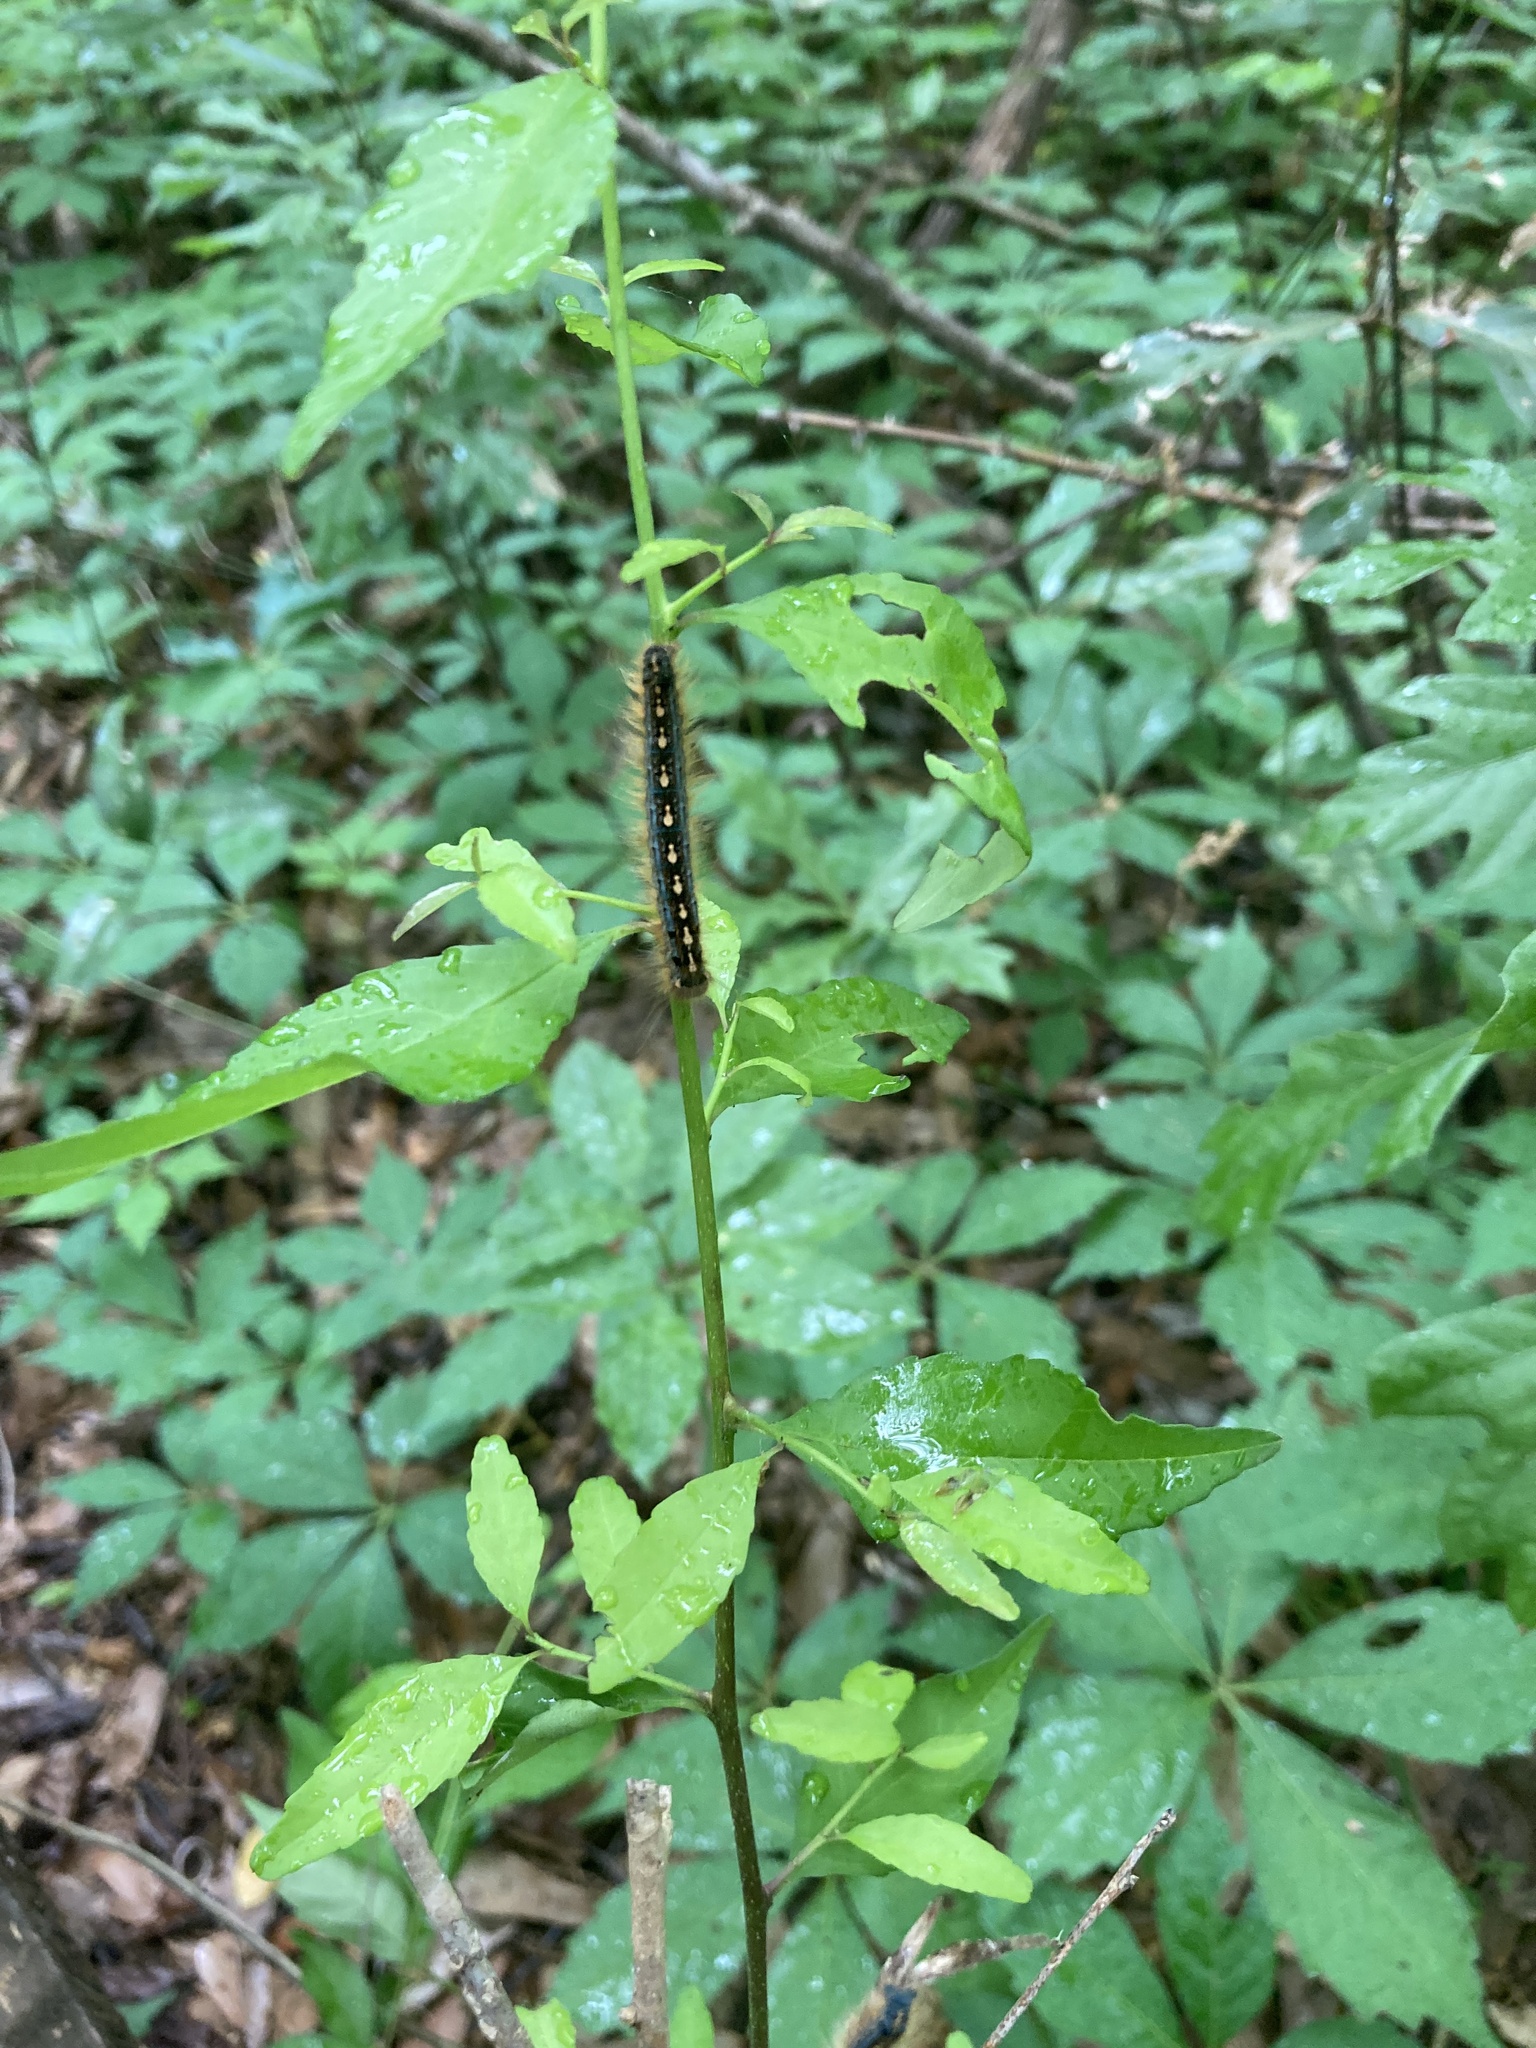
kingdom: Animalia
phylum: Arthropoda
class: Insecta
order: Lepidoptera
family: Lasiocampidae
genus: Malacosoma
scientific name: Malacosoma disstria
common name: Forest tent caterpillar
